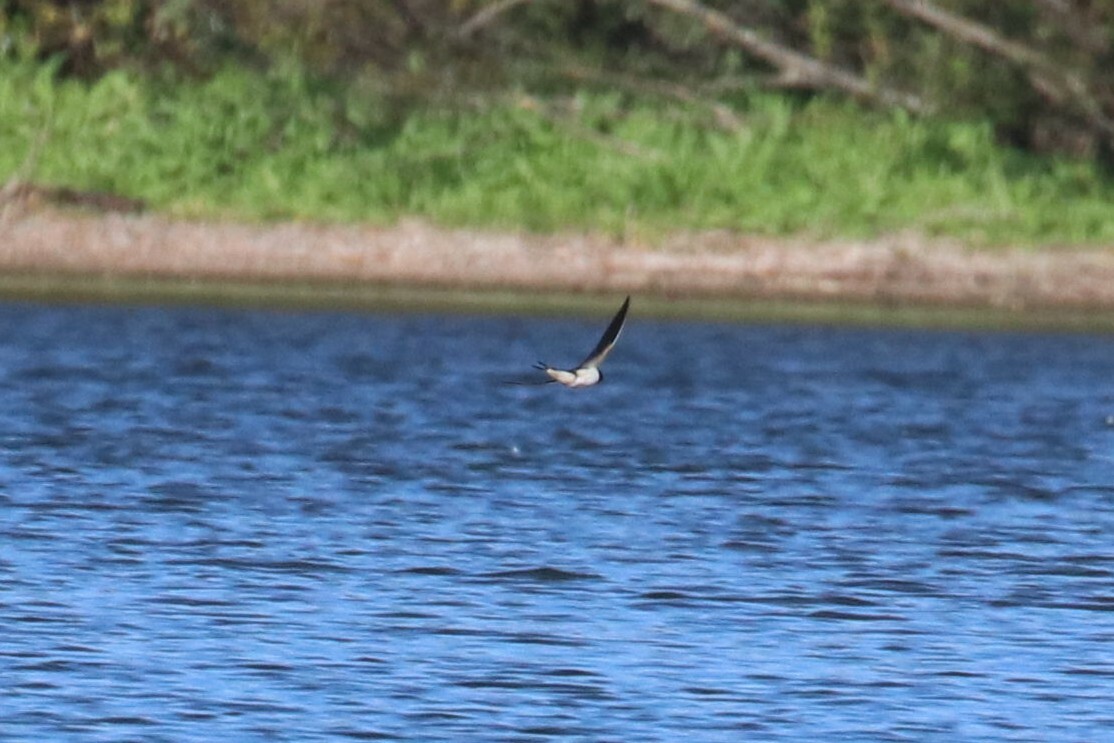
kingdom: Animalia
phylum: Chordata
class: Aves
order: Passeriformes
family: Hirundinidae
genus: Hirundo
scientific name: Hirundo rustica
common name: Barn swallow
